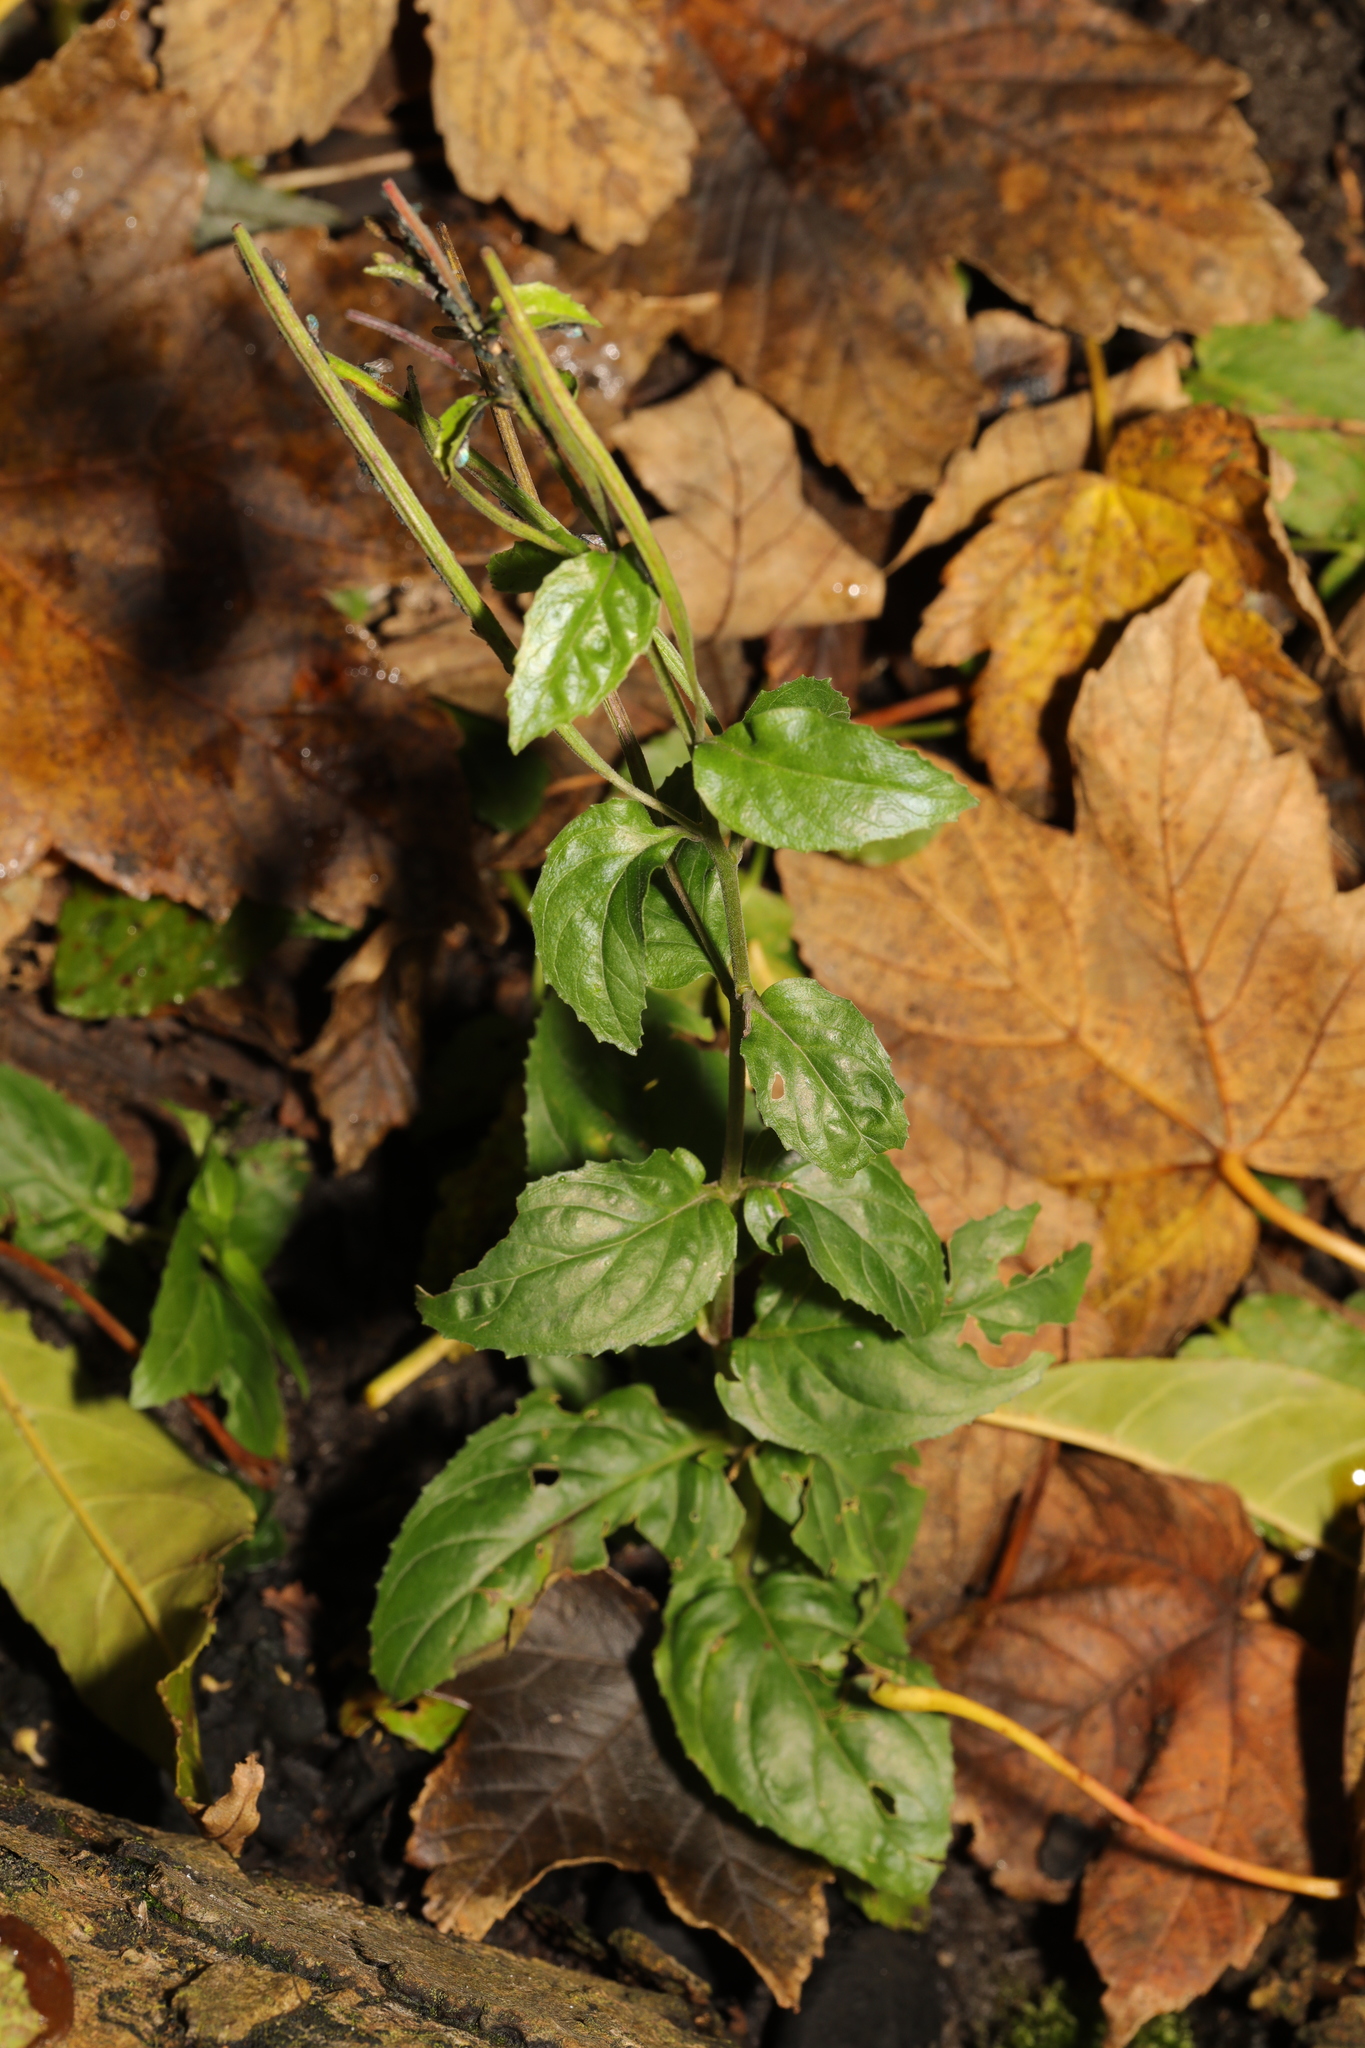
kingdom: Plantae
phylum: Tracheophyta
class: Magnoliopsida
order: Myrtales
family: Onagraceae
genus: Epilobium
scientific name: Epilobium montanum
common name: Broad-leaved willowherb
